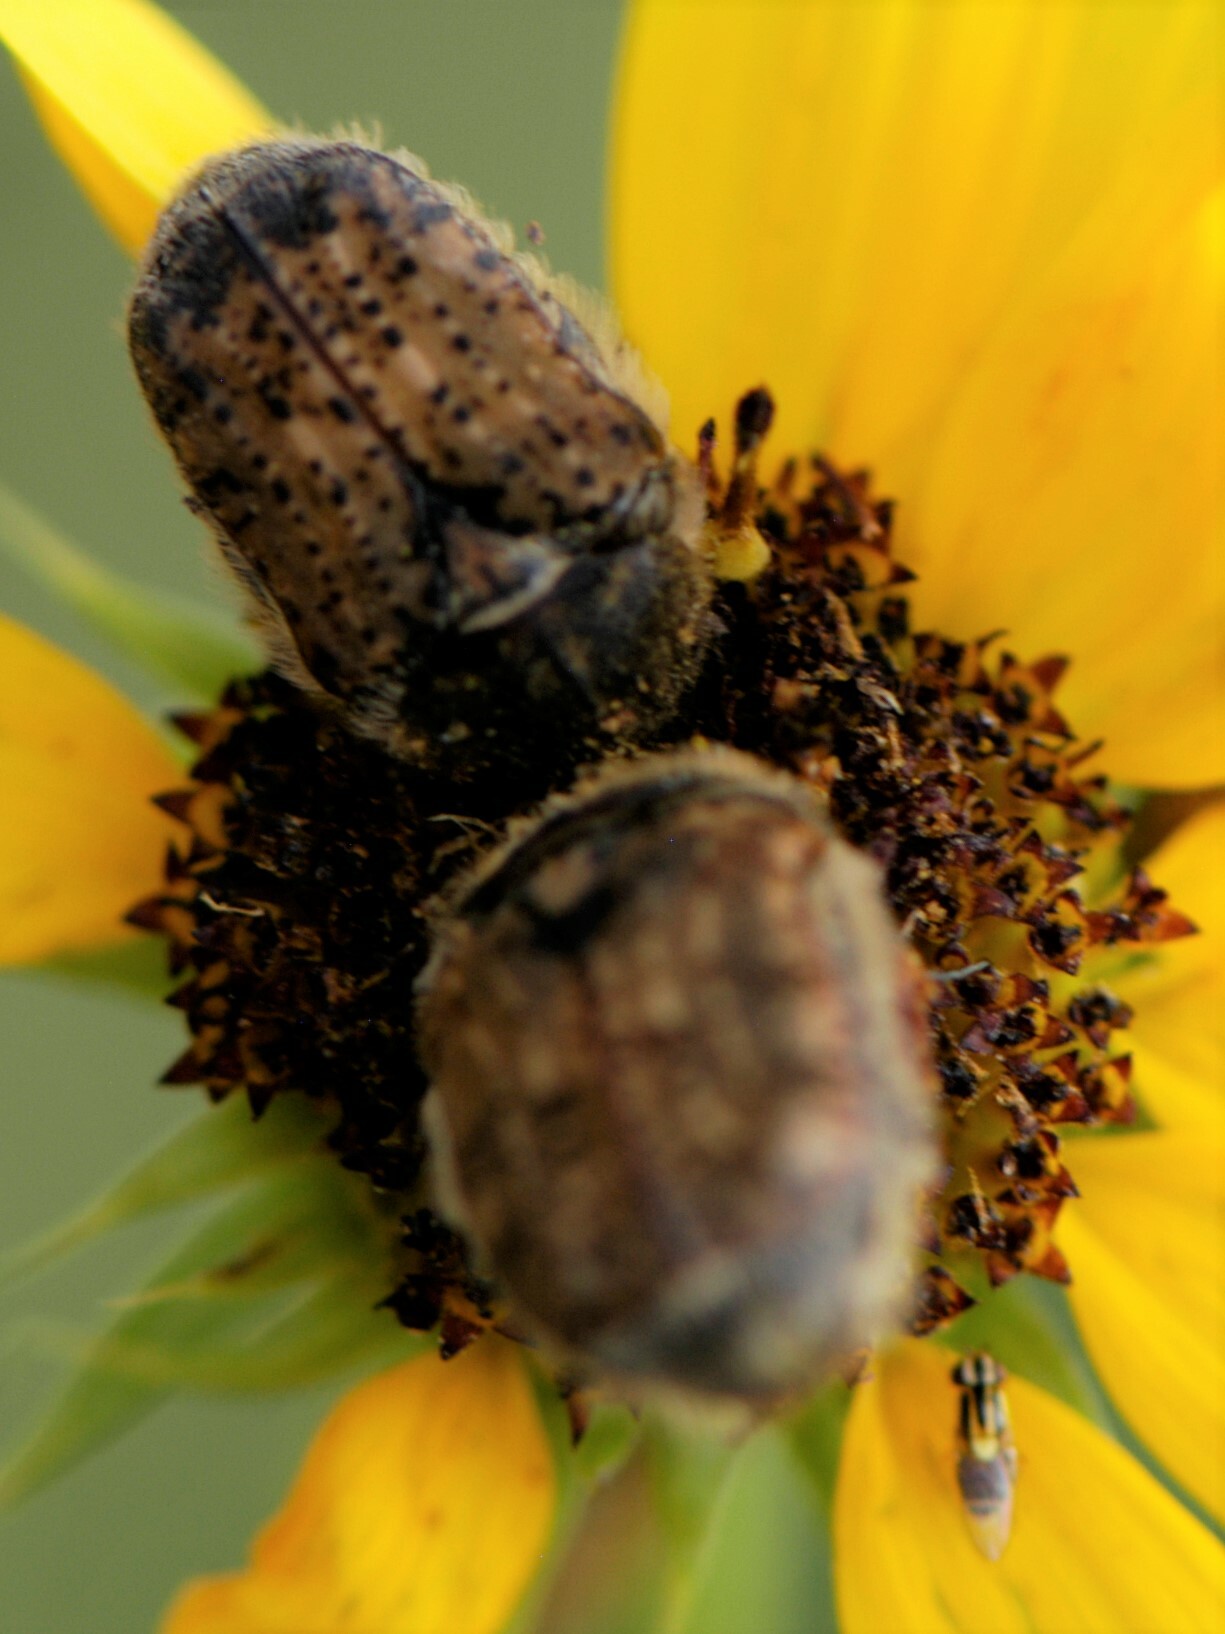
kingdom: Animalia
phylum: Arthropoda
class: Insecta
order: Coleoptera
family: Scarabaeidae
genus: Euphoria
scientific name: Euphoria inda
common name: Bumble flower beetle
